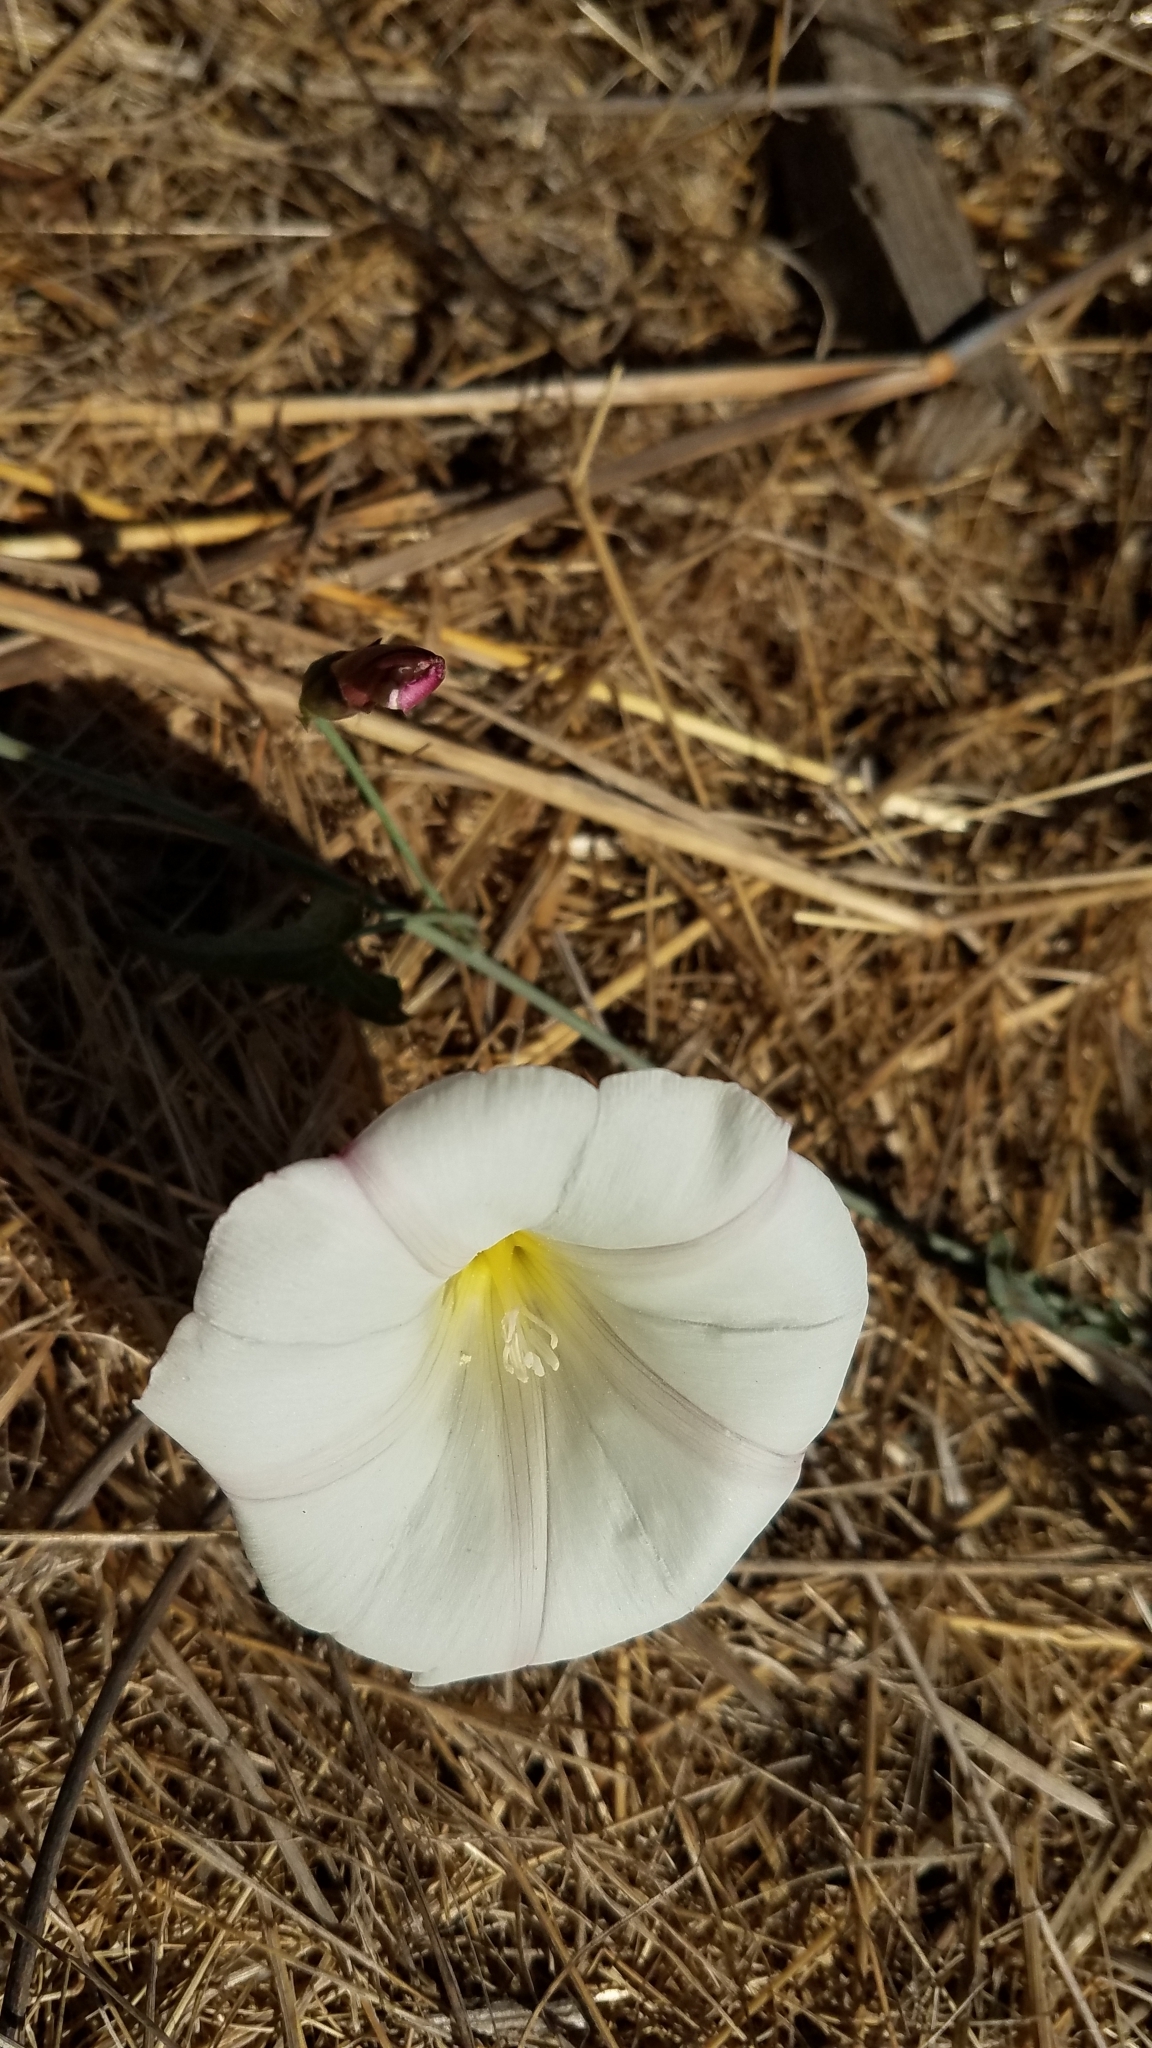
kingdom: Plantae
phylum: Tracheophyta
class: Magnoliopsida
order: Solanales
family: Convolvulaceae
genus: Calystegia
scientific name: Calystegia purpurata
